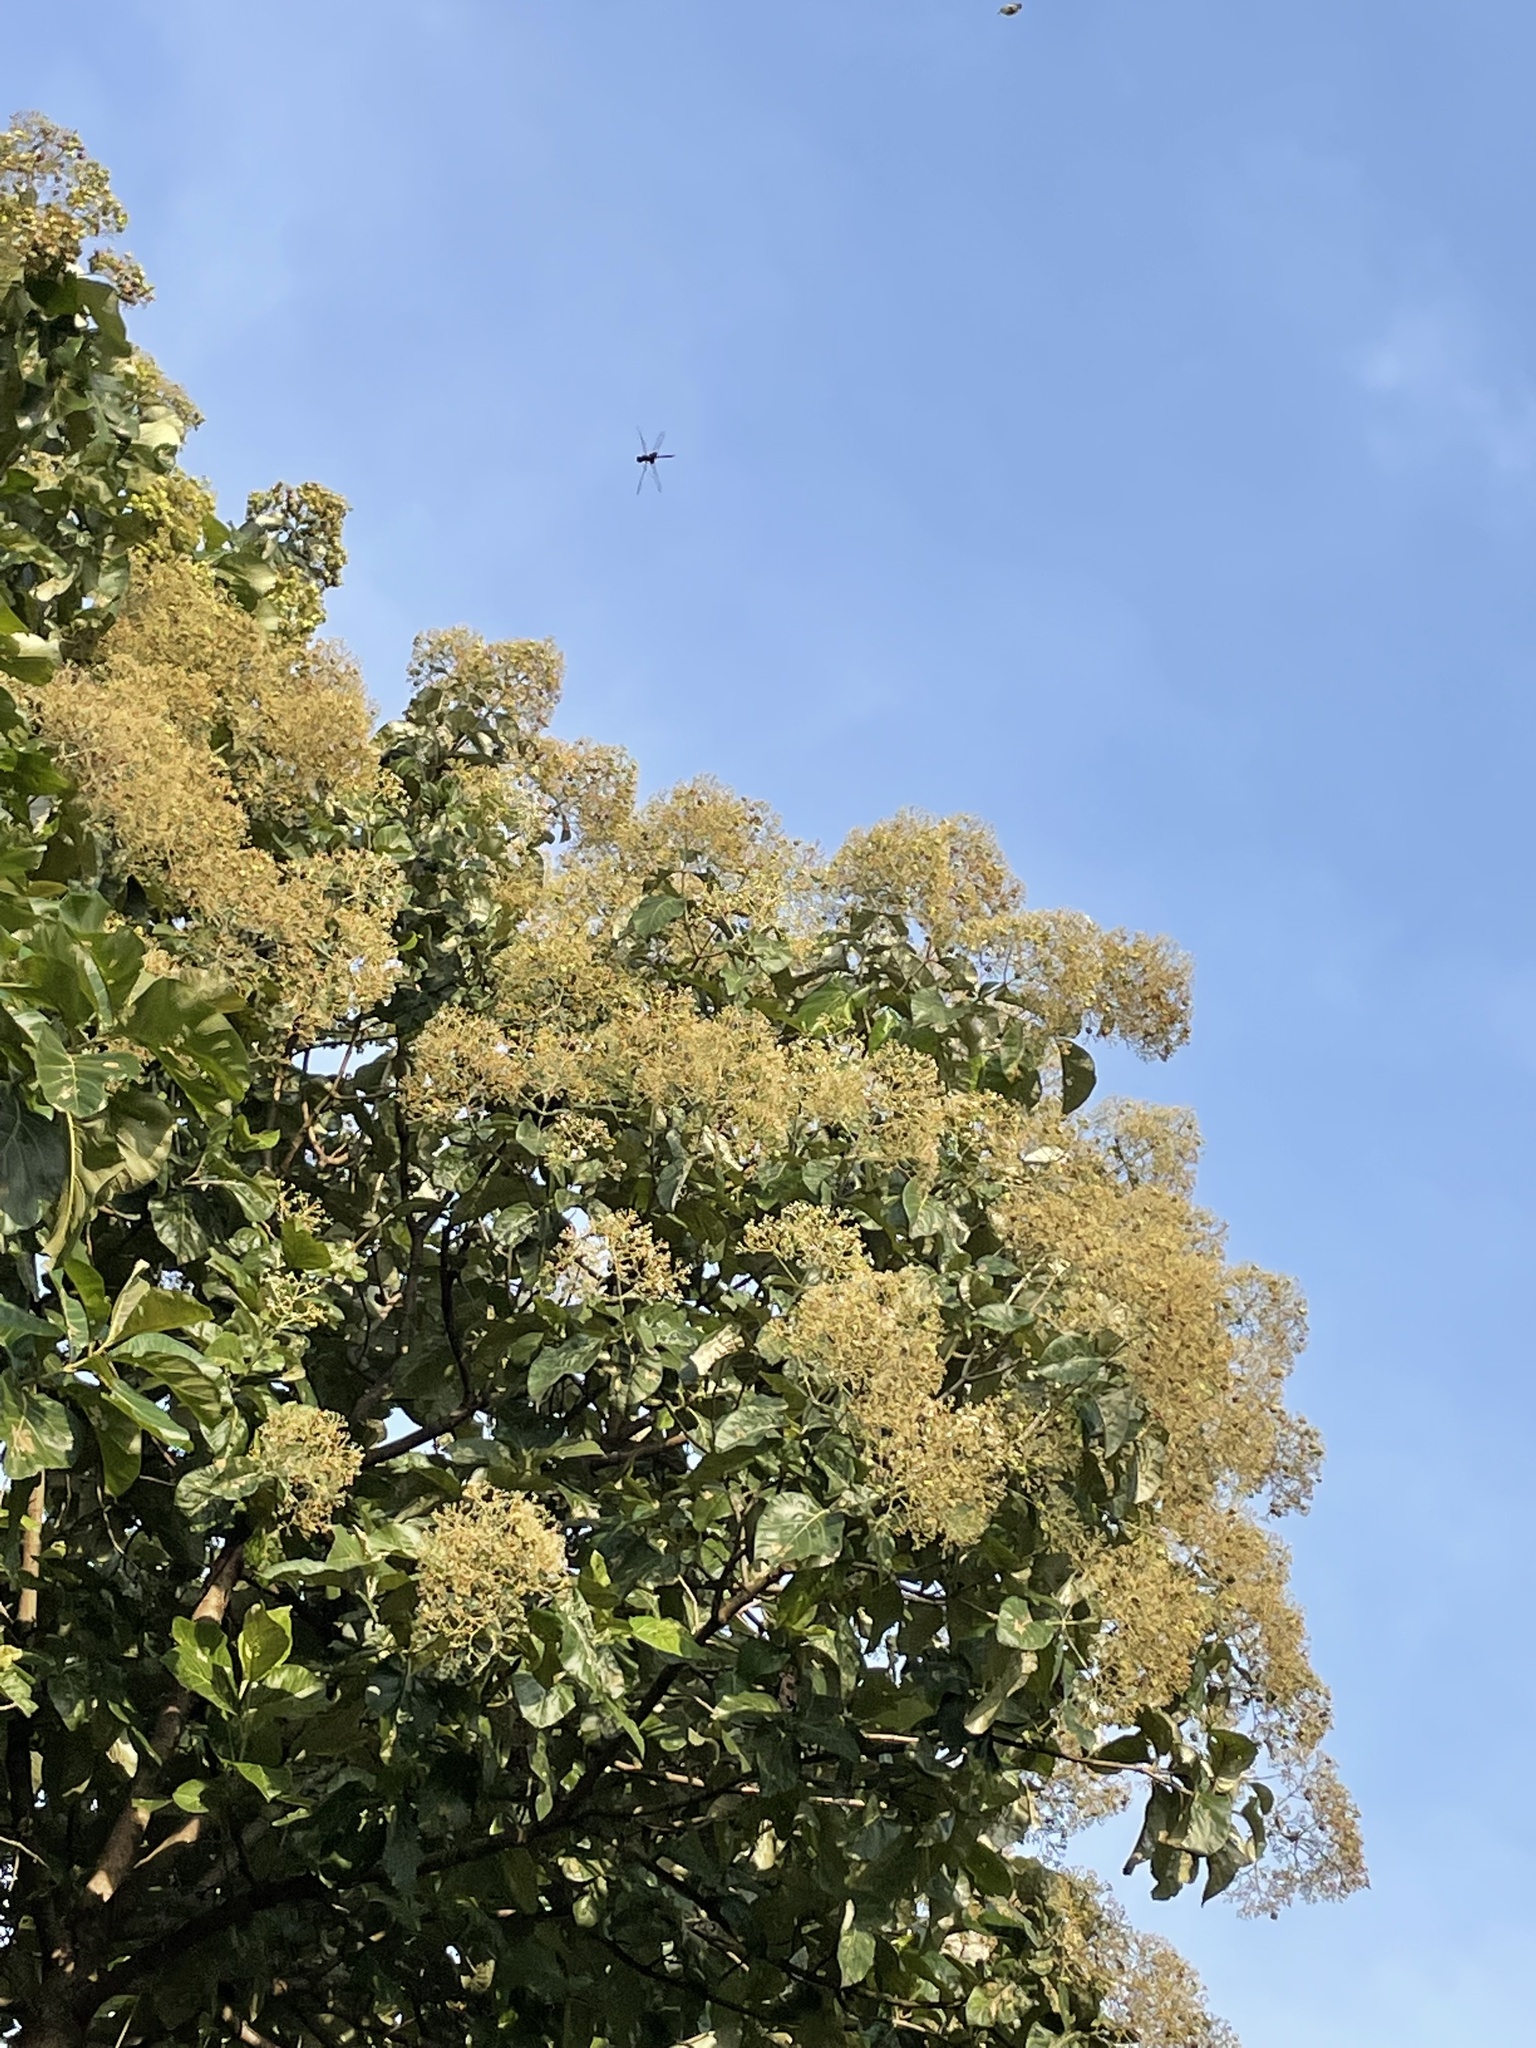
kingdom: Animalia
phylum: Arthropoda
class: Insecta
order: Odonata
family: Libellulidae
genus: Tramea
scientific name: Tramea limbata
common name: Ferruginous glider
